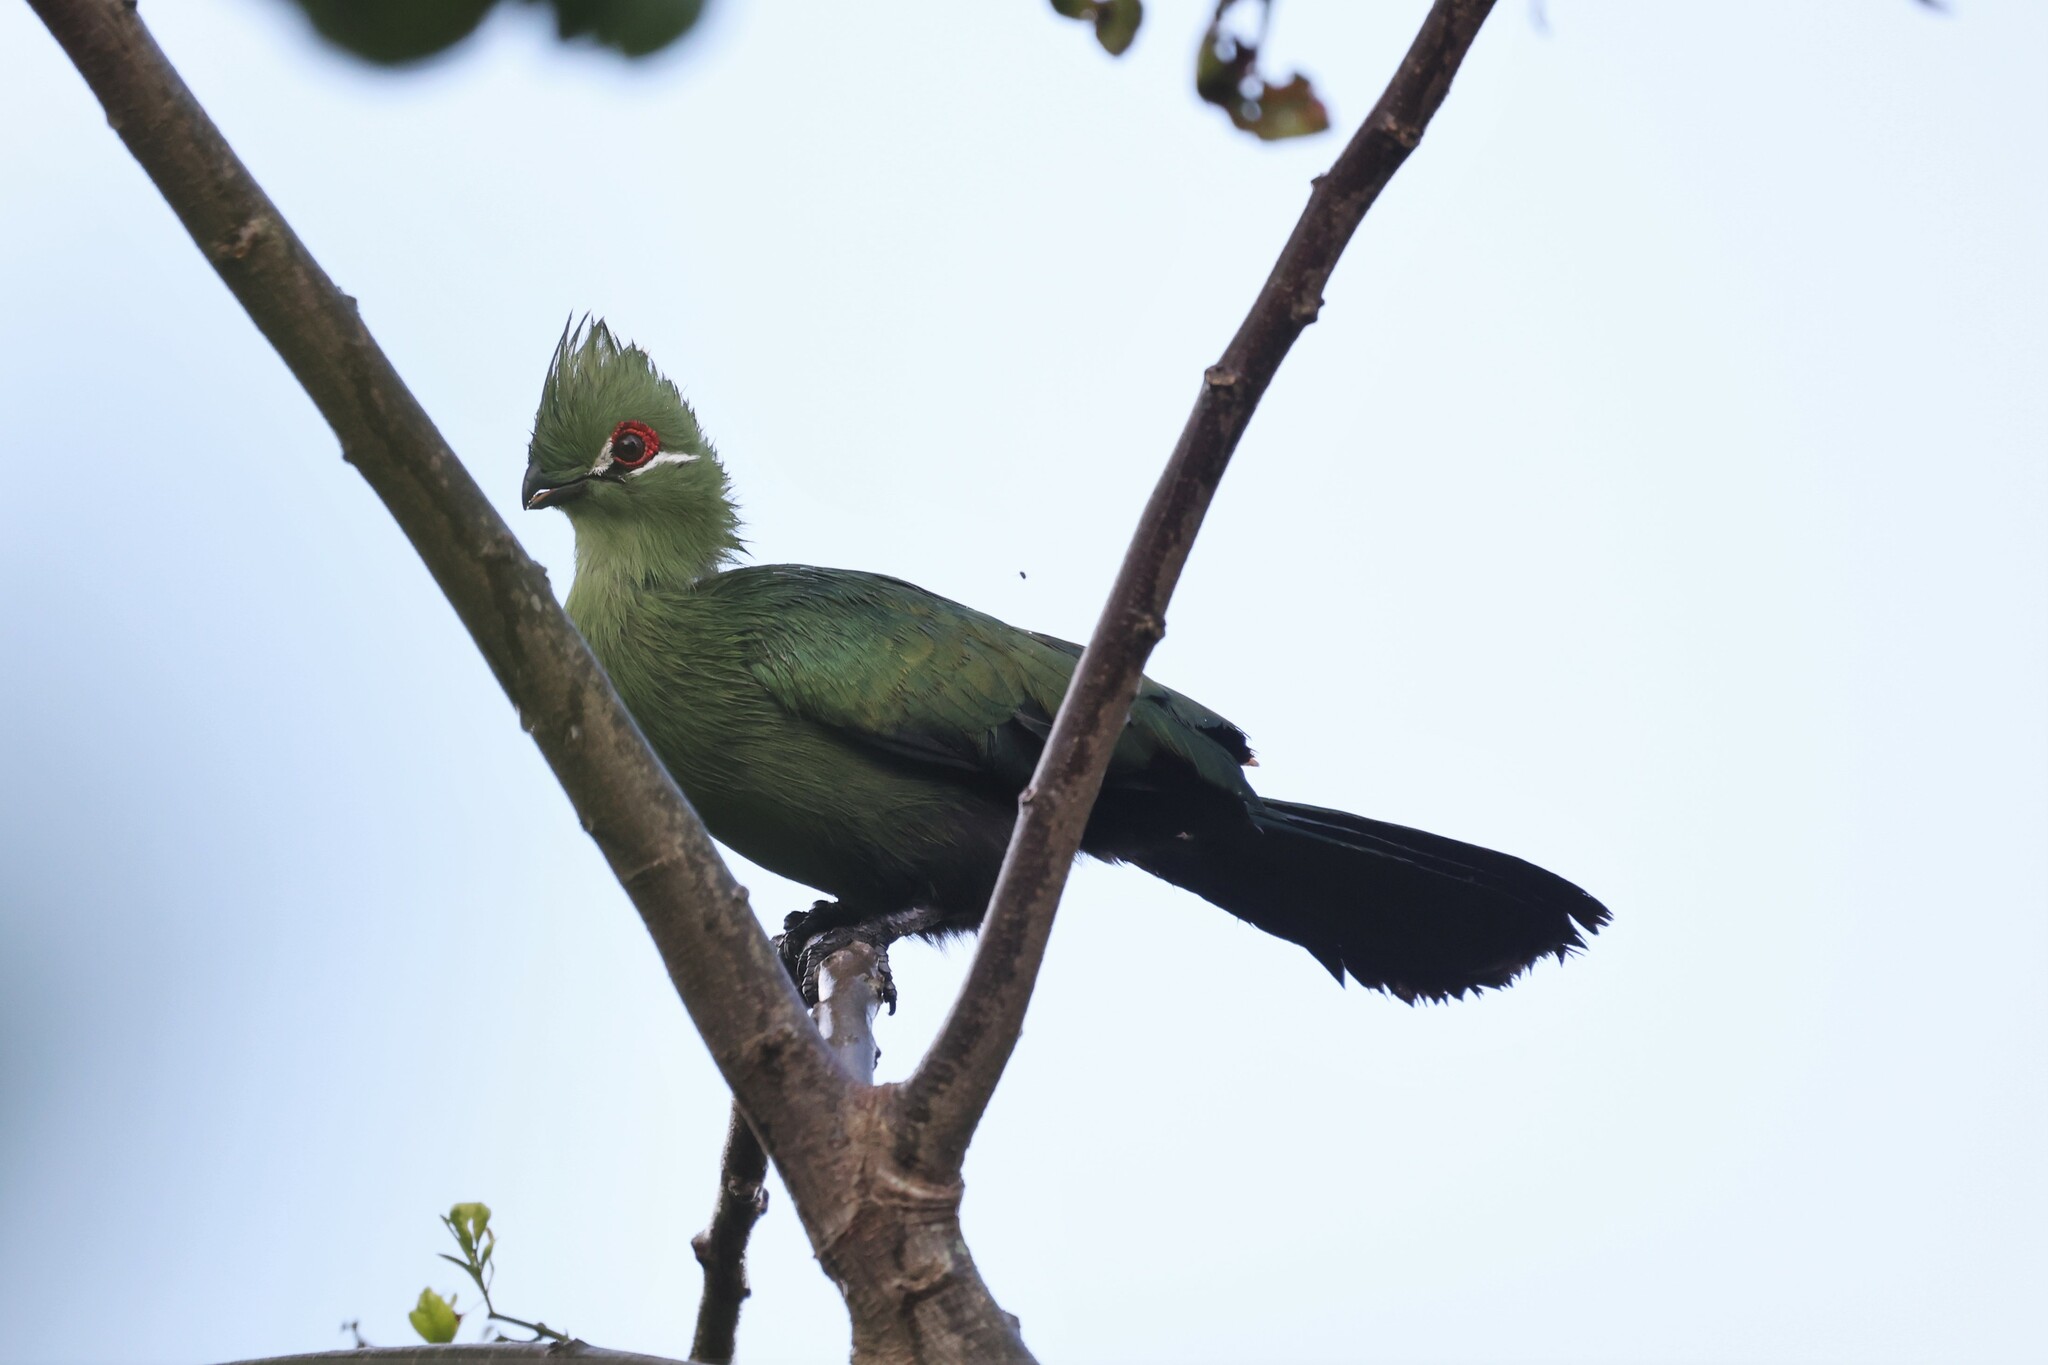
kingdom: Animalia
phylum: Chordata
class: Aves
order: Musophagiformes
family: Musophagidae
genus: Tauraco
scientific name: Tauraco schuettii
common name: Black-billed turaco
